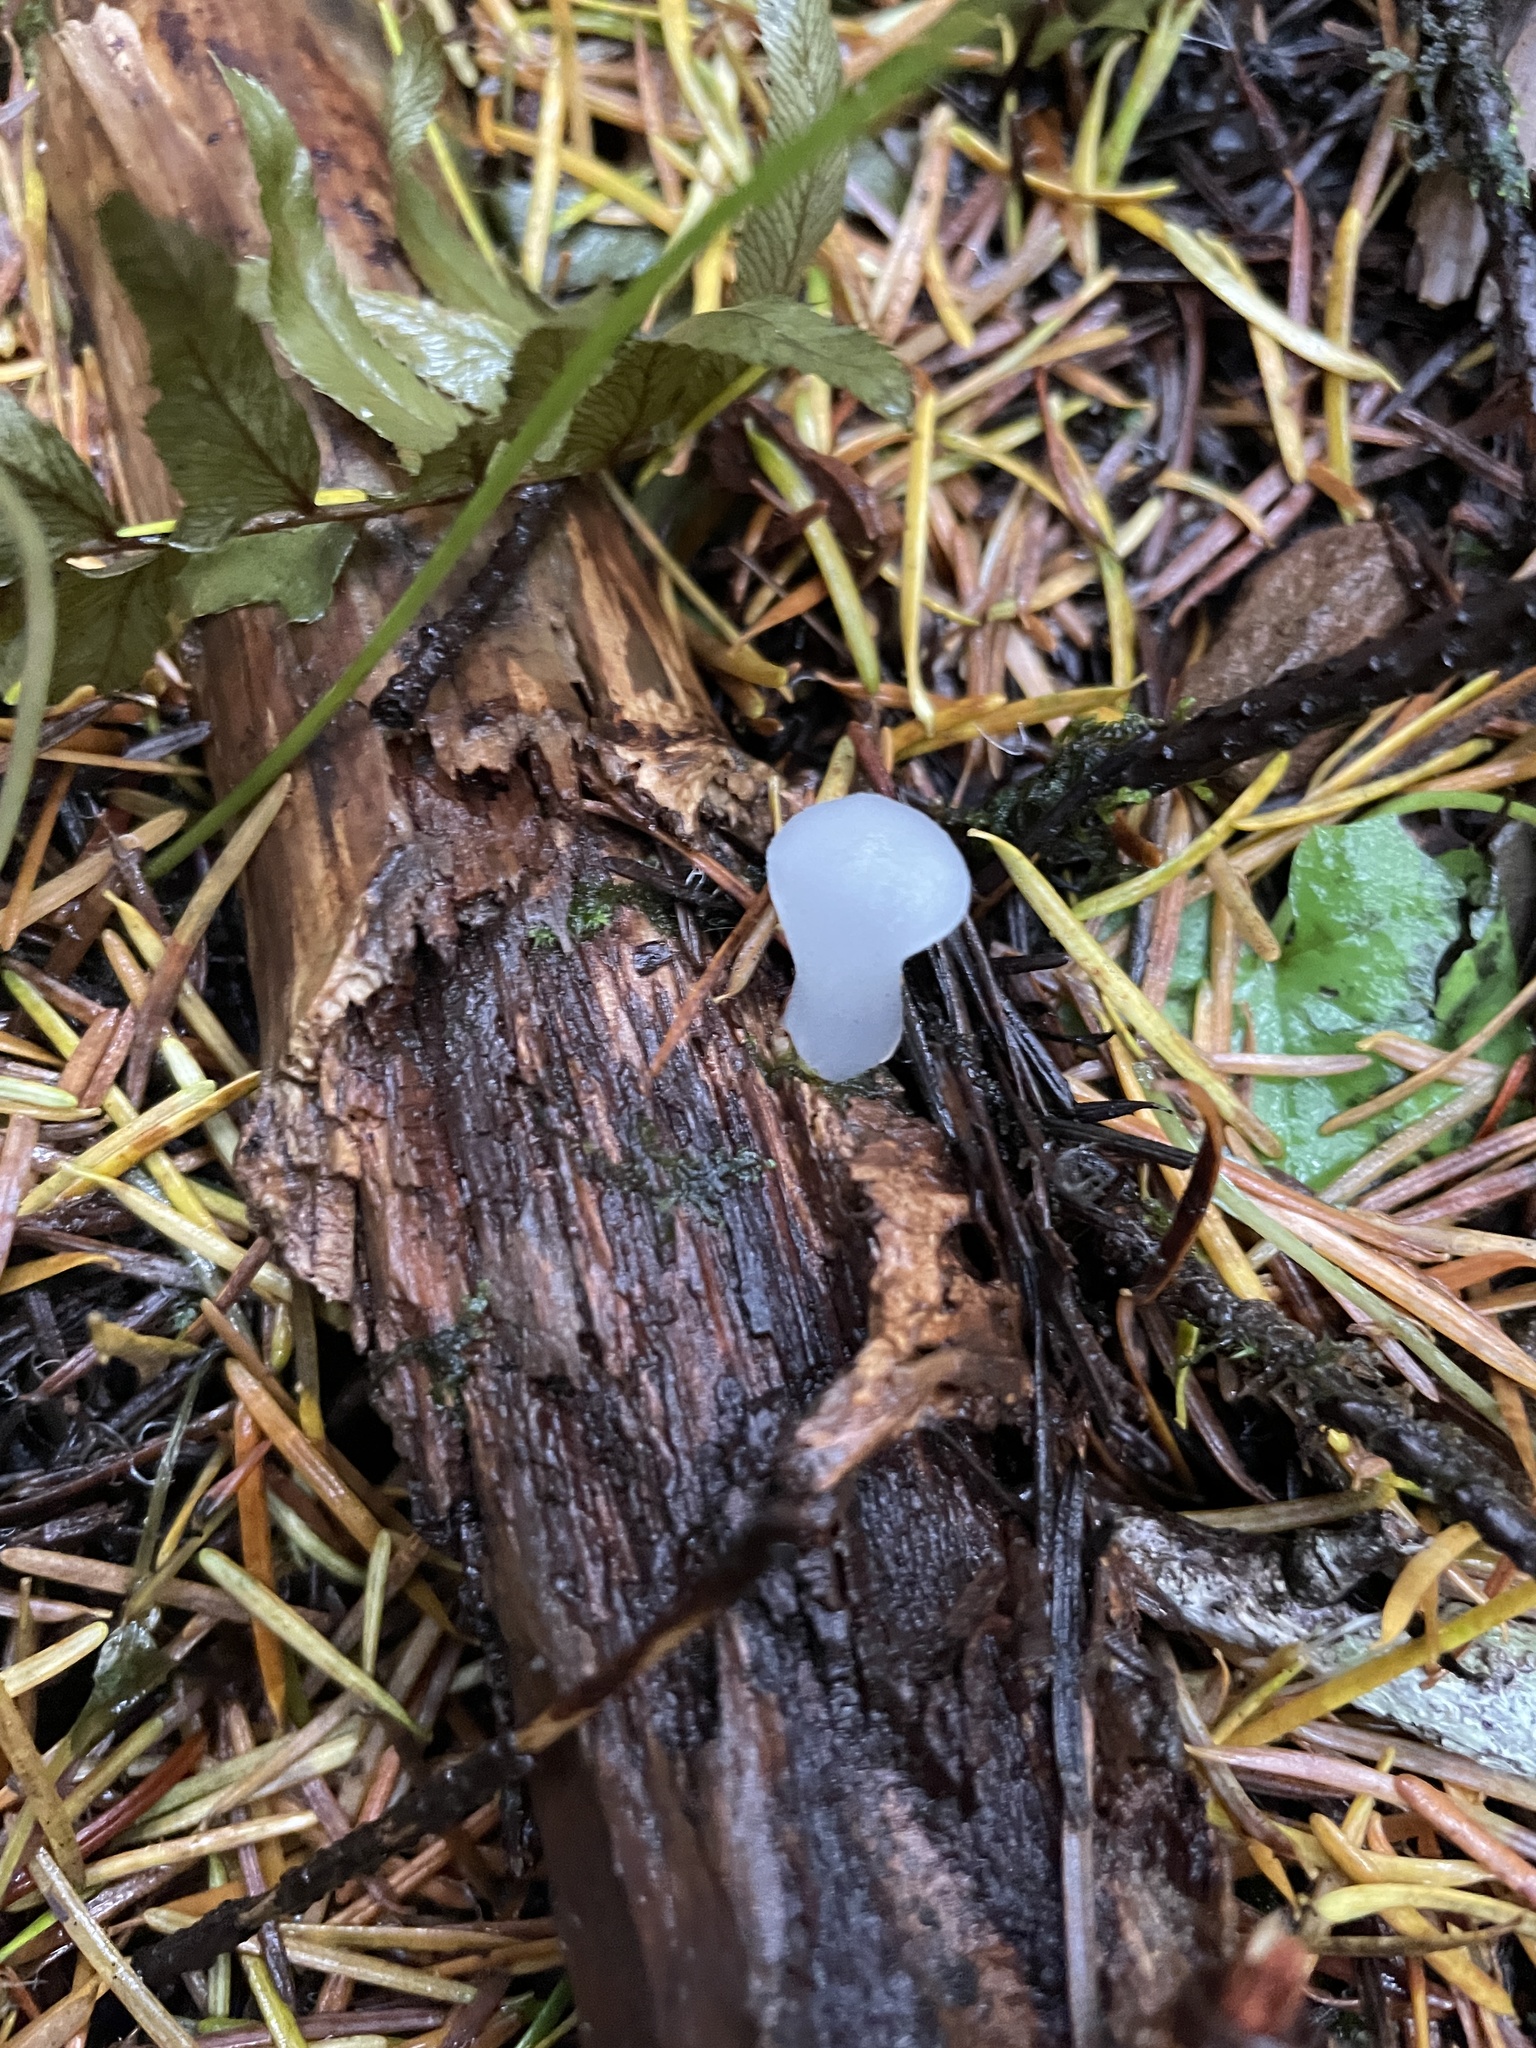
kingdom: Fungi
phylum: Basidiomycota
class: Agaricomycetes
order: Auriculariales
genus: Pseudohydnum
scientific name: Pseudohydnum gelatinosum
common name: Jelly tongue
